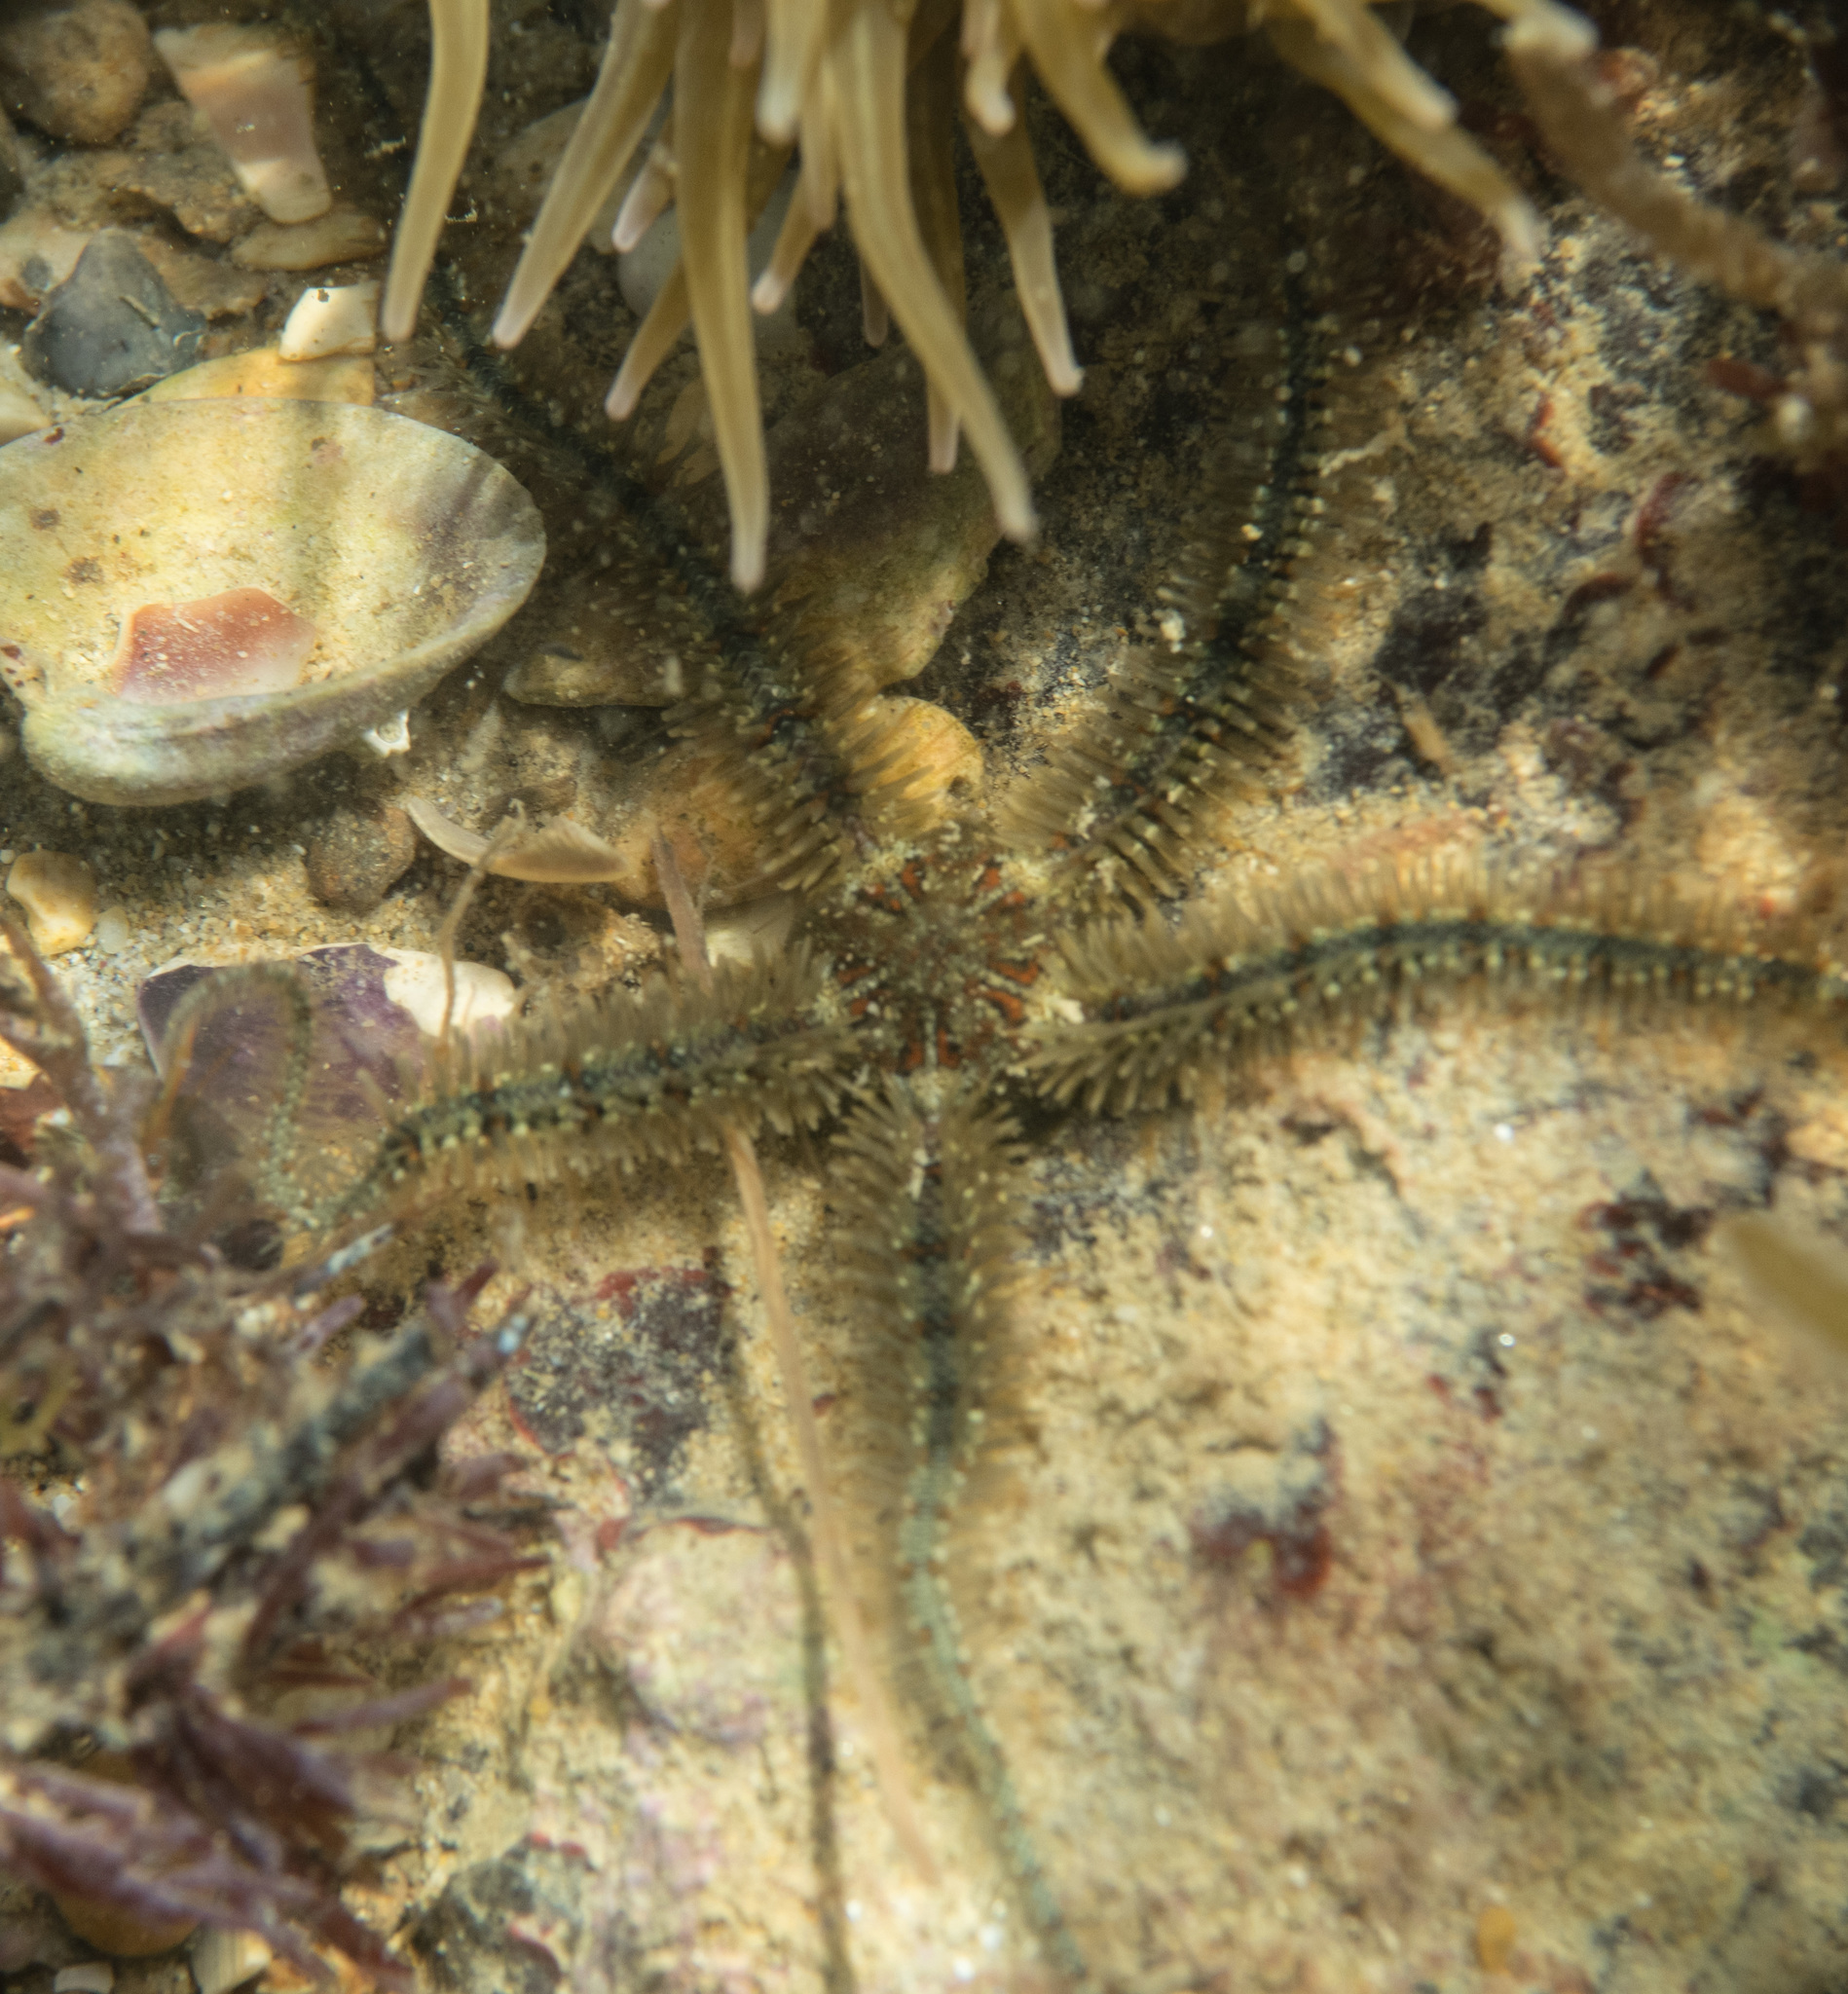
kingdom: Animalia
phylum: Echinodermata
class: Ophiuroidea
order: Amphilepidida
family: Ophiotrichidae
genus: Ophiothrix
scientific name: Ophiothrix fragilis
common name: Common brittlestar
